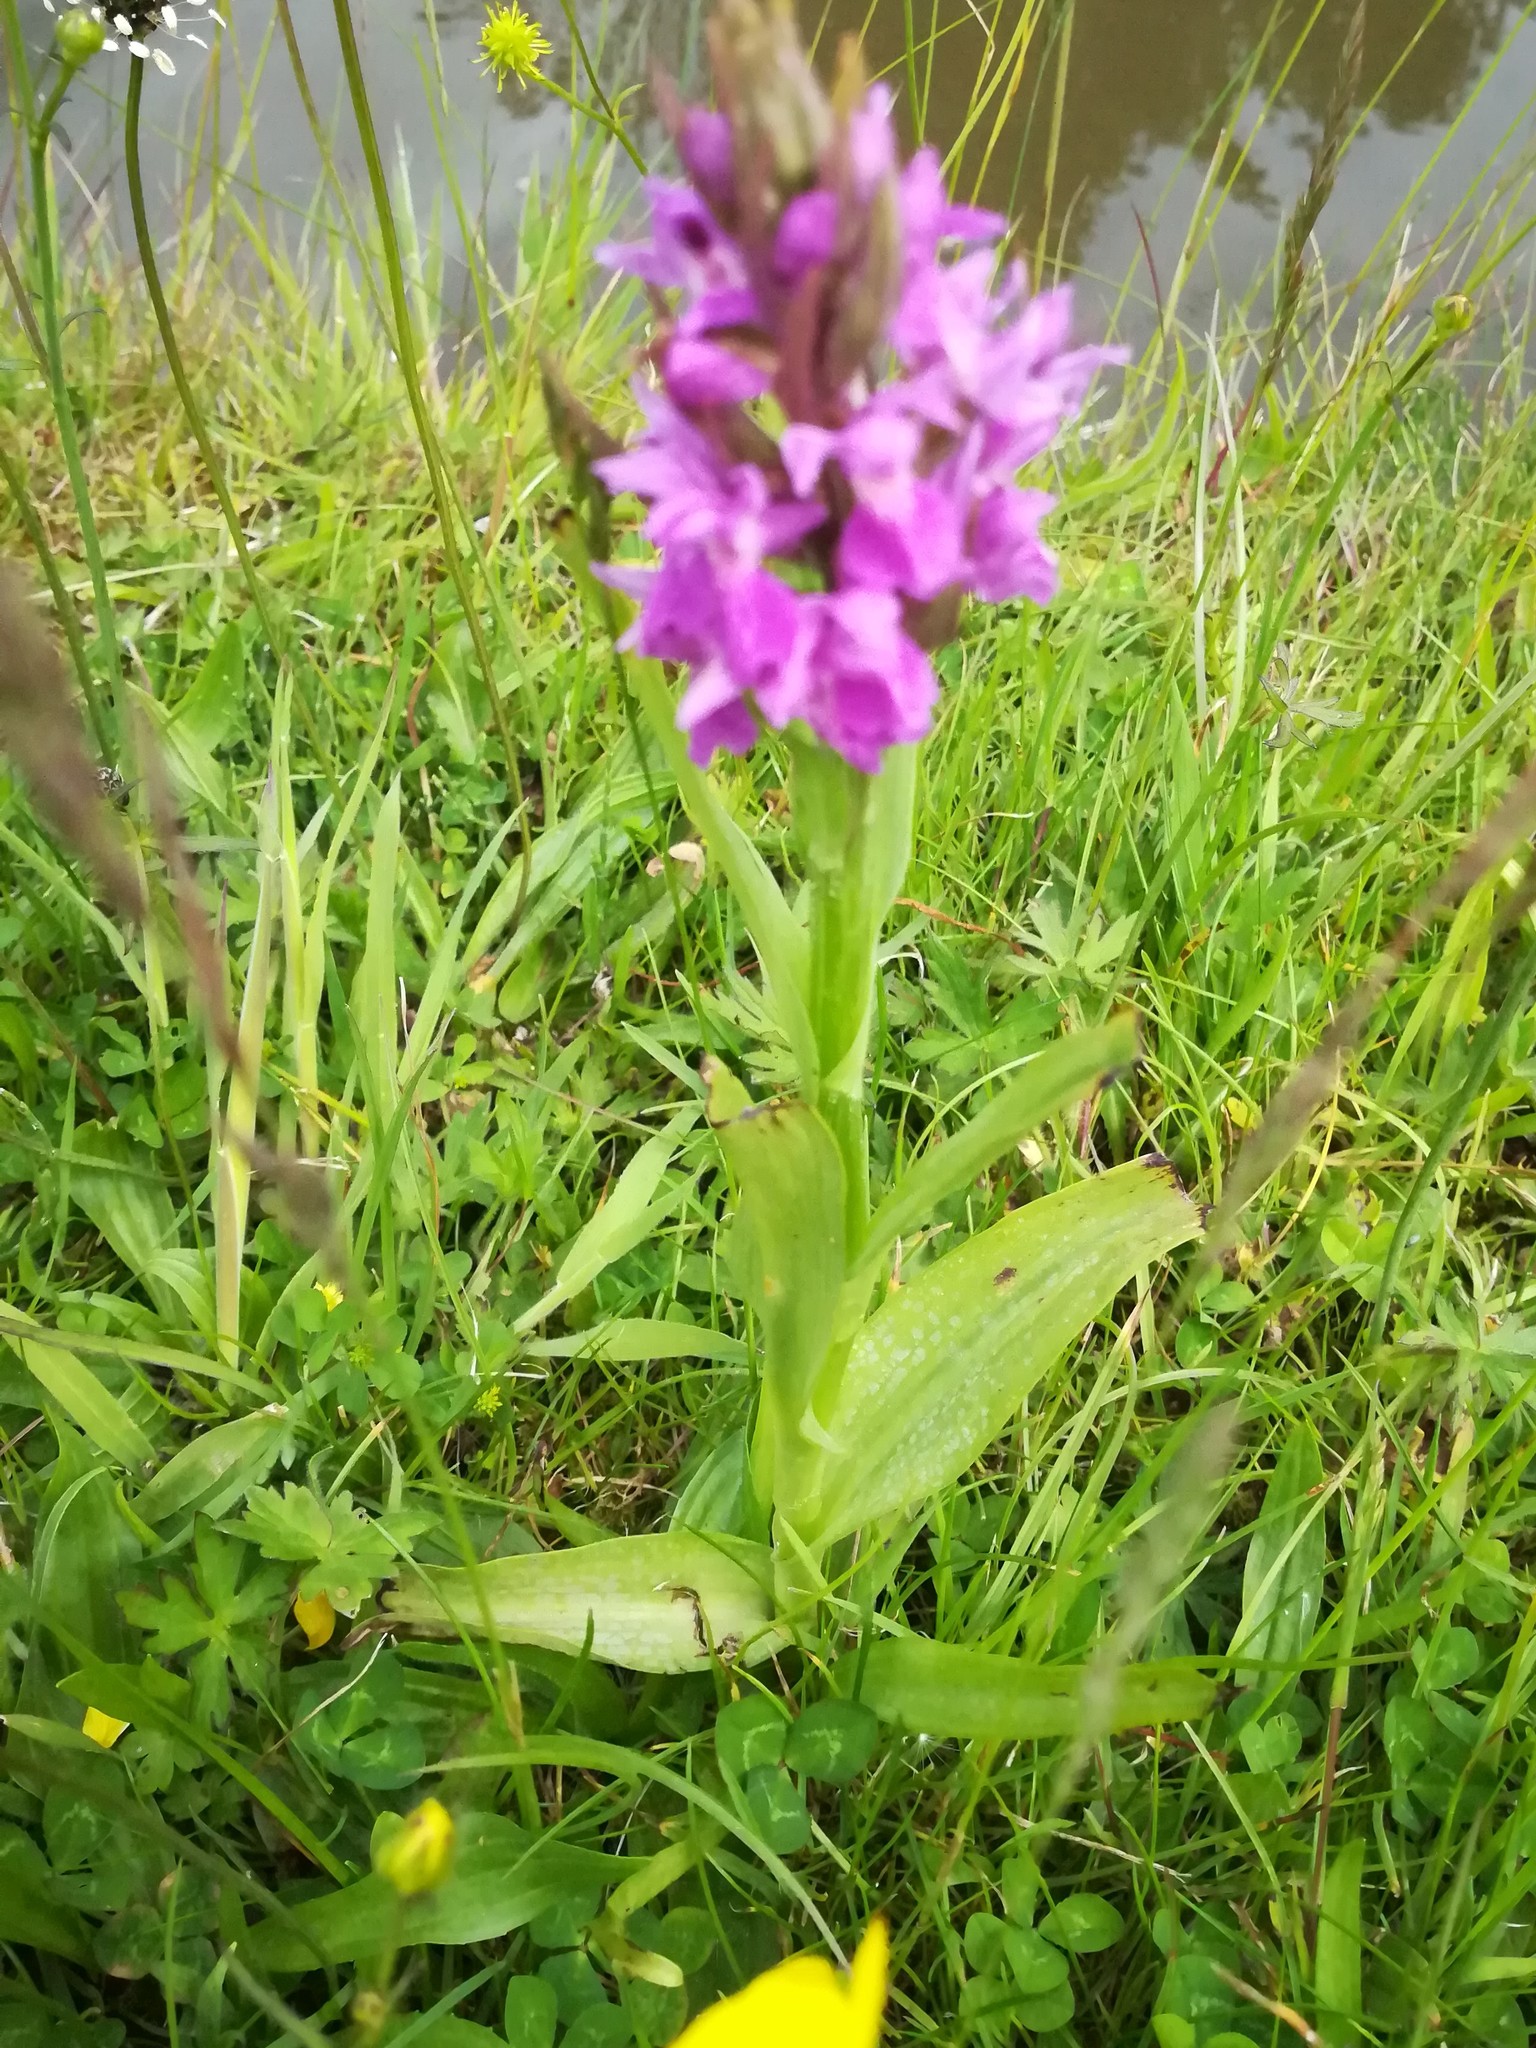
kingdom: Plantae
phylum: Tracheophyta
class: Liliopsida
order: Asparagales
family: Orchidaceae
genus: Dactylorhiza
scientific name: Dactylorhiza majalis
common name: Marsh orchid
